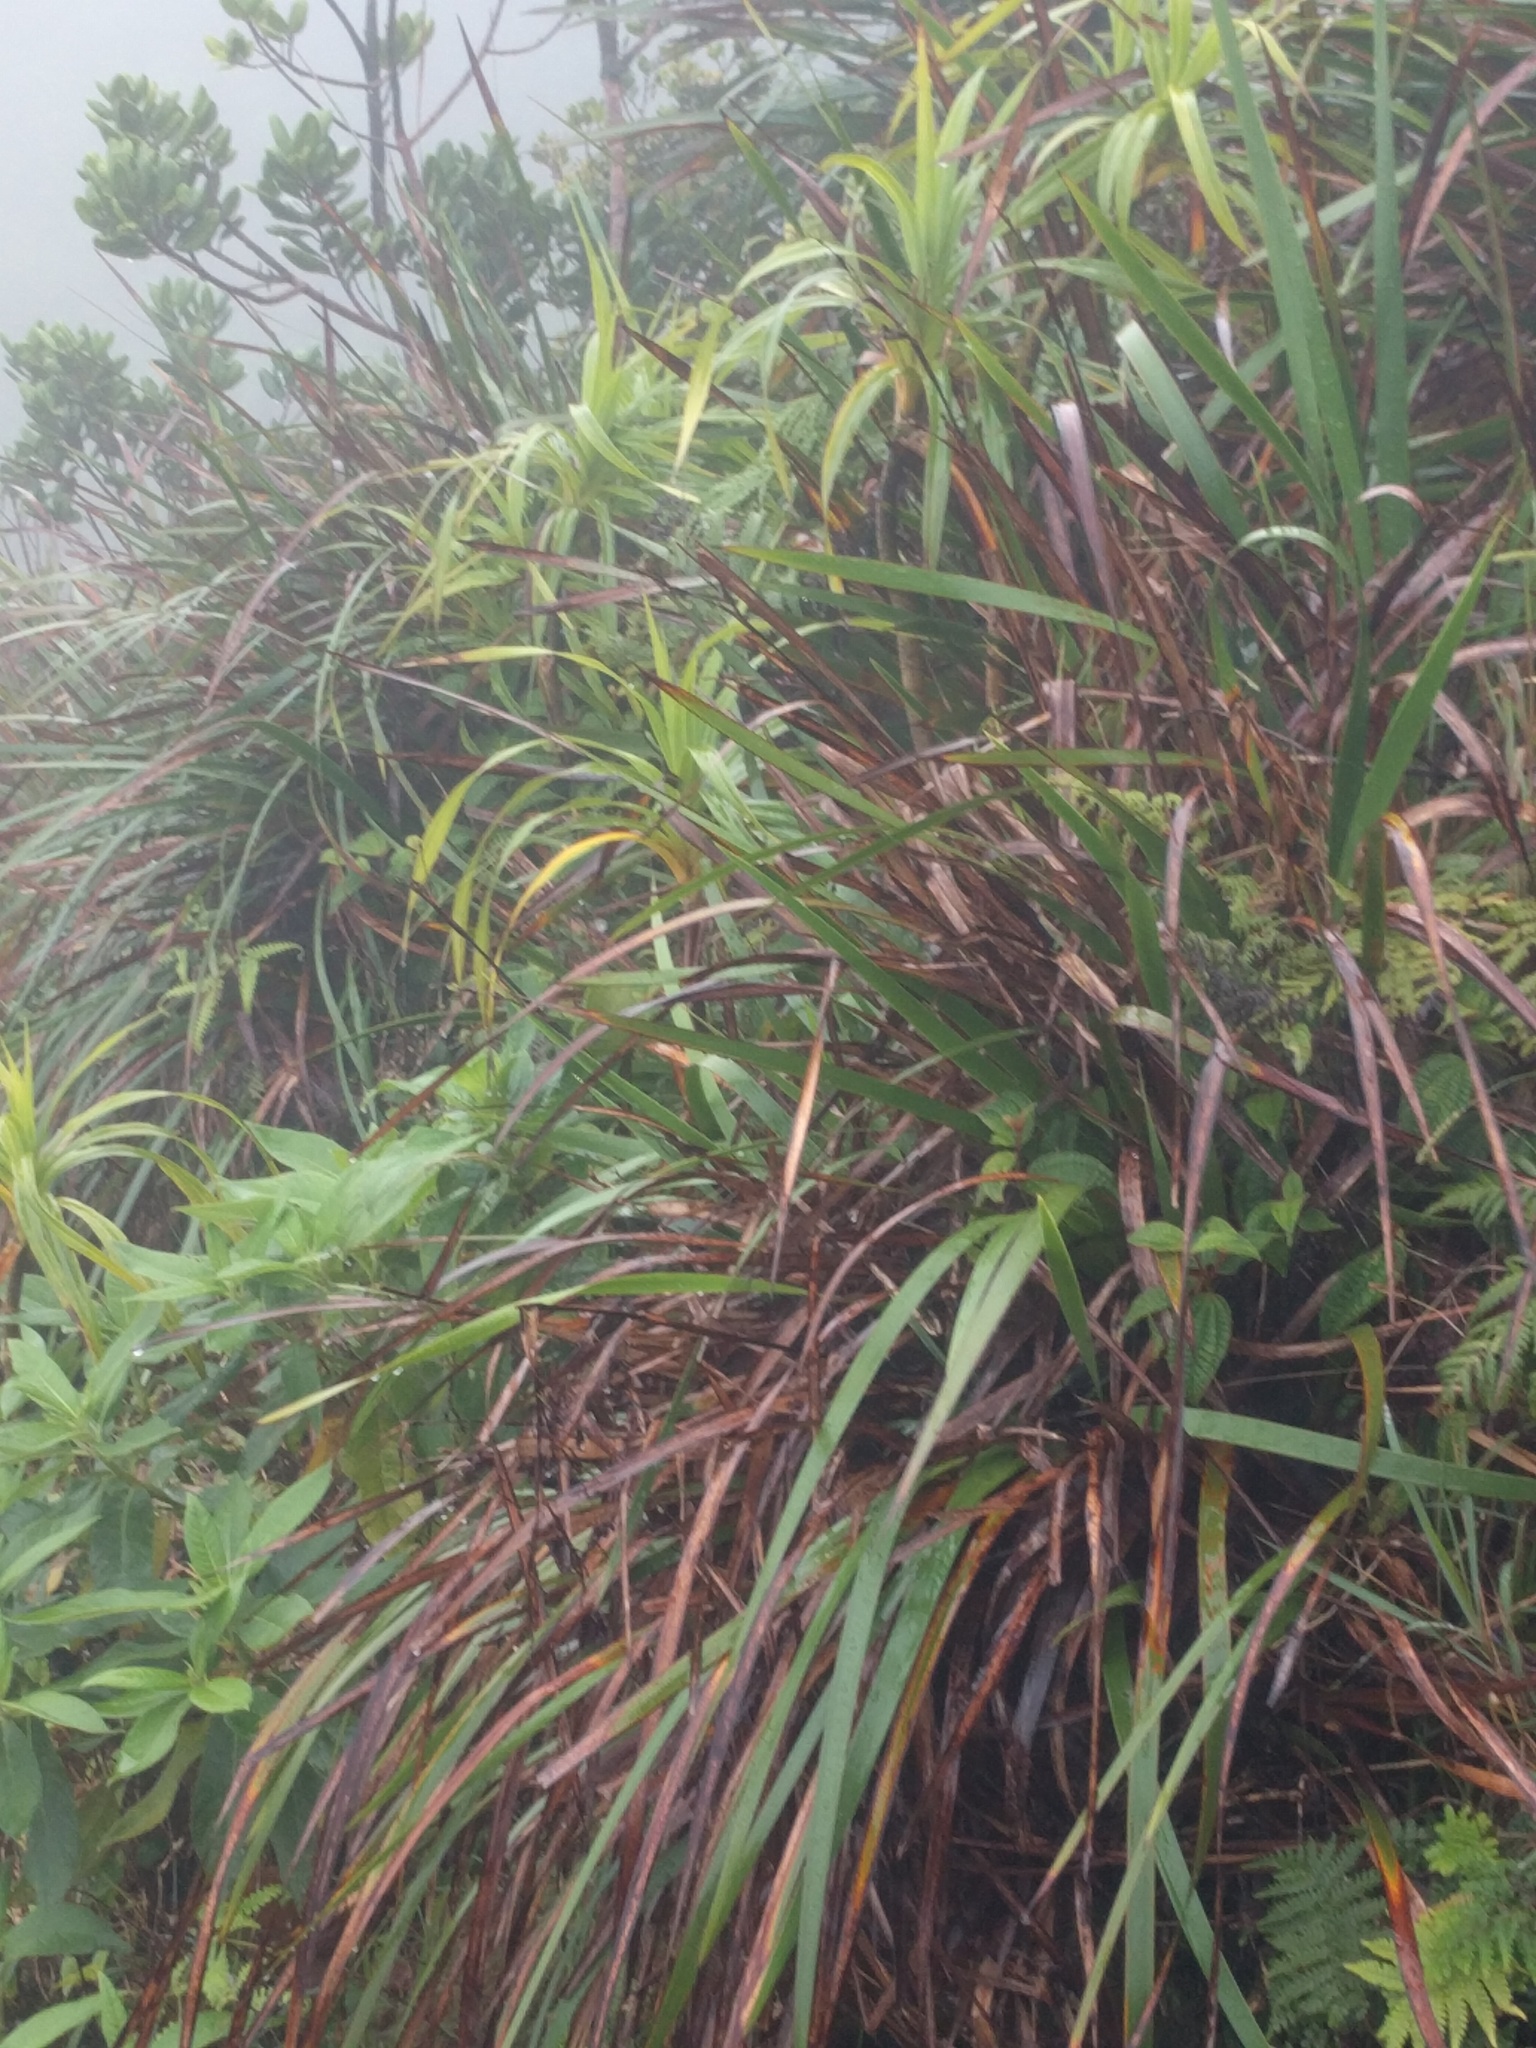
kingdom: Plantae
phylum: Tracheophyta
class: Liliopsida
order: Poales
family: Cyperaceae
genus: Machaerina
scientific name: Machaerina angustifolia
